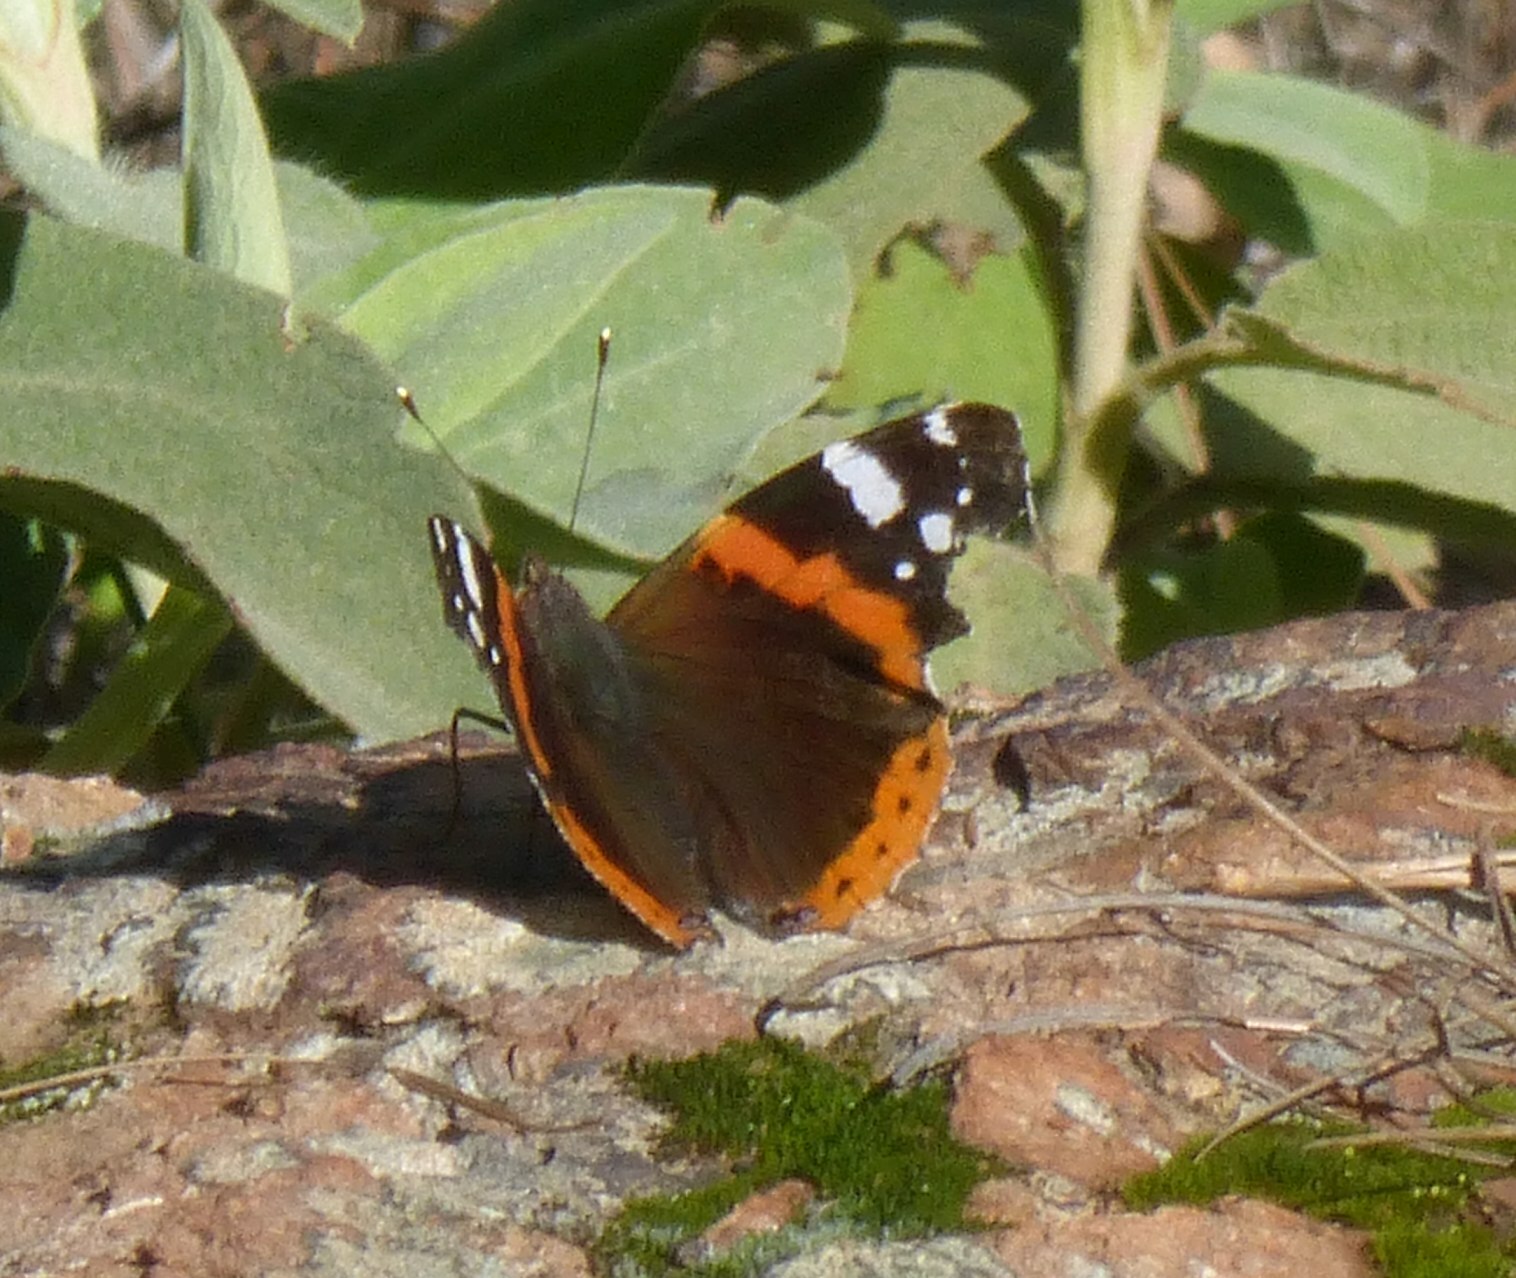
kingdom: Animalia
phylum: Arthropoda
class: Insecta
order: Lepidoptera
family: Nymphalidae
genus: Vanessa
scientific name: Vanessa atalanta
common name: Red admiral
